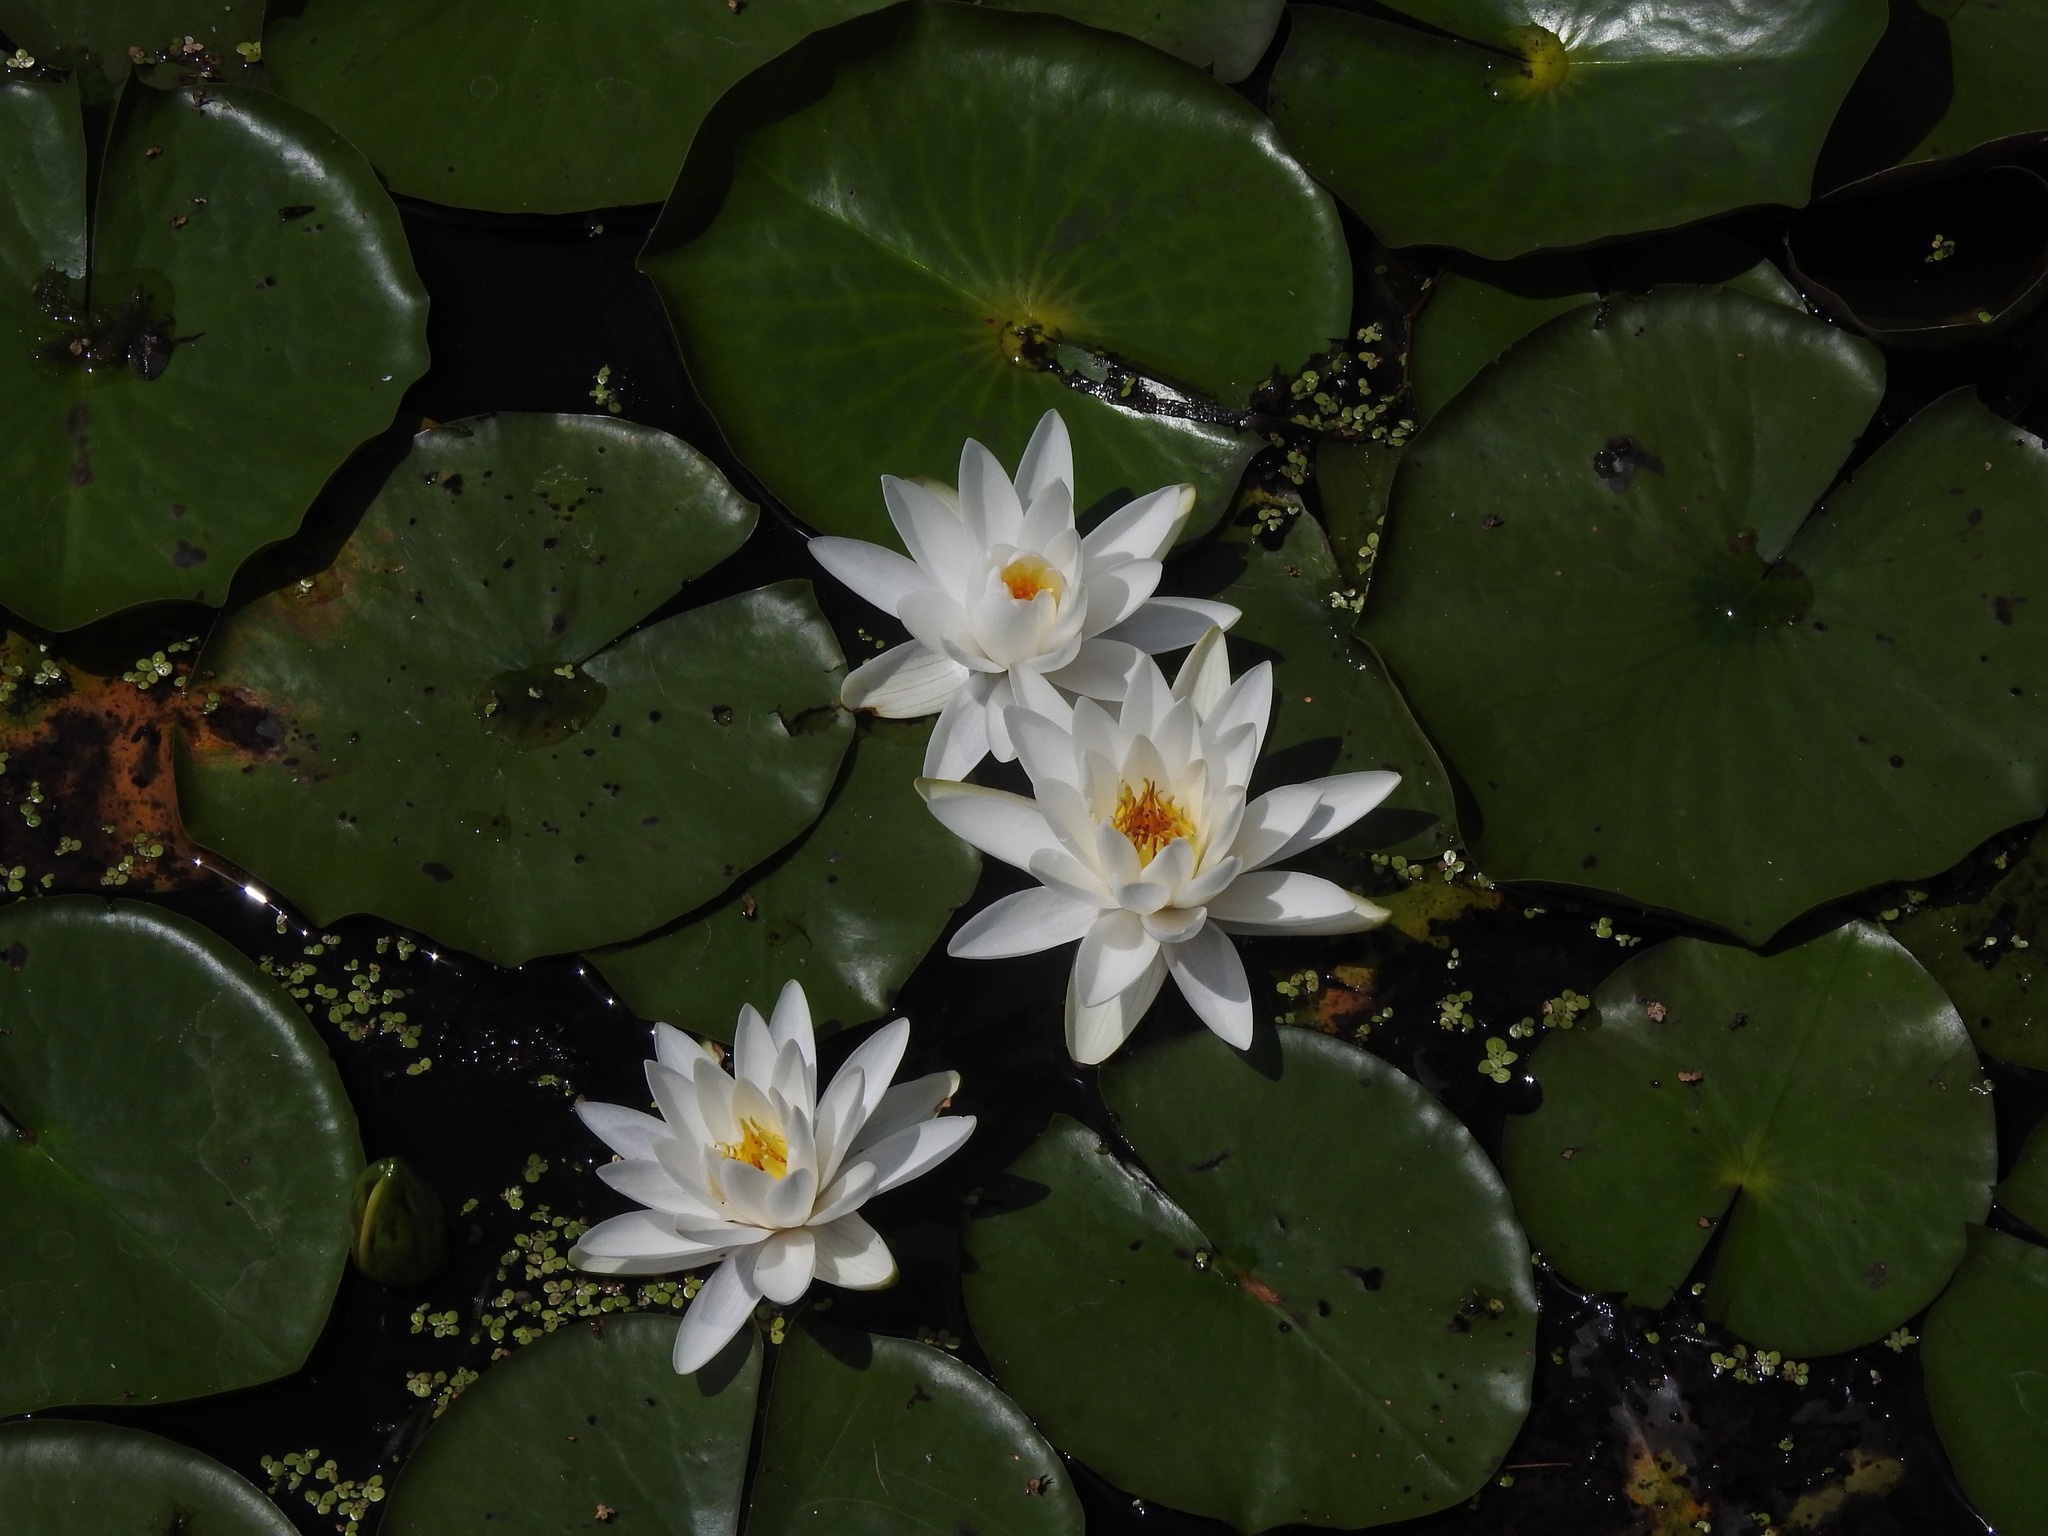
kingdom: Plantae
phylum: Tracheophyta
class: Magnoliopsida
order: Nymphaeales
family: Nymphaeaceae
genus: Nymphaea
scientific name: Nymphaea odorata
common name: Fragrant water-lily
